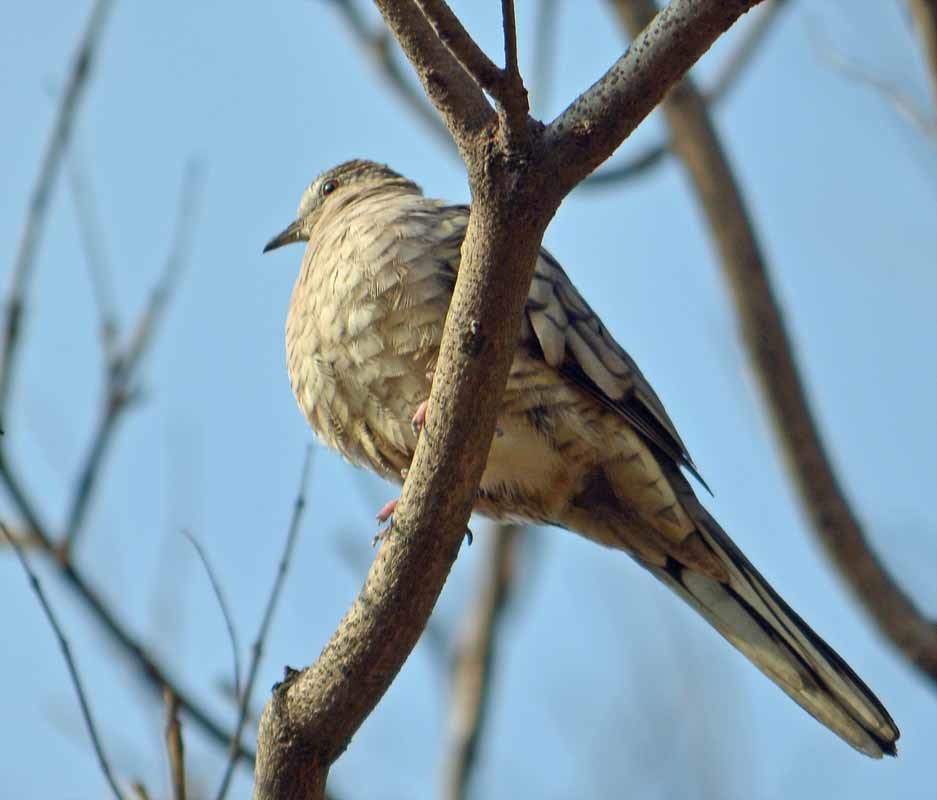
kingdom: Animalia
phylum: Chordata
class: Aves
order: Columbiformes
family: Columbidae
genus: Columbina
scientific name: Columbina inca
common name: Inca dove
